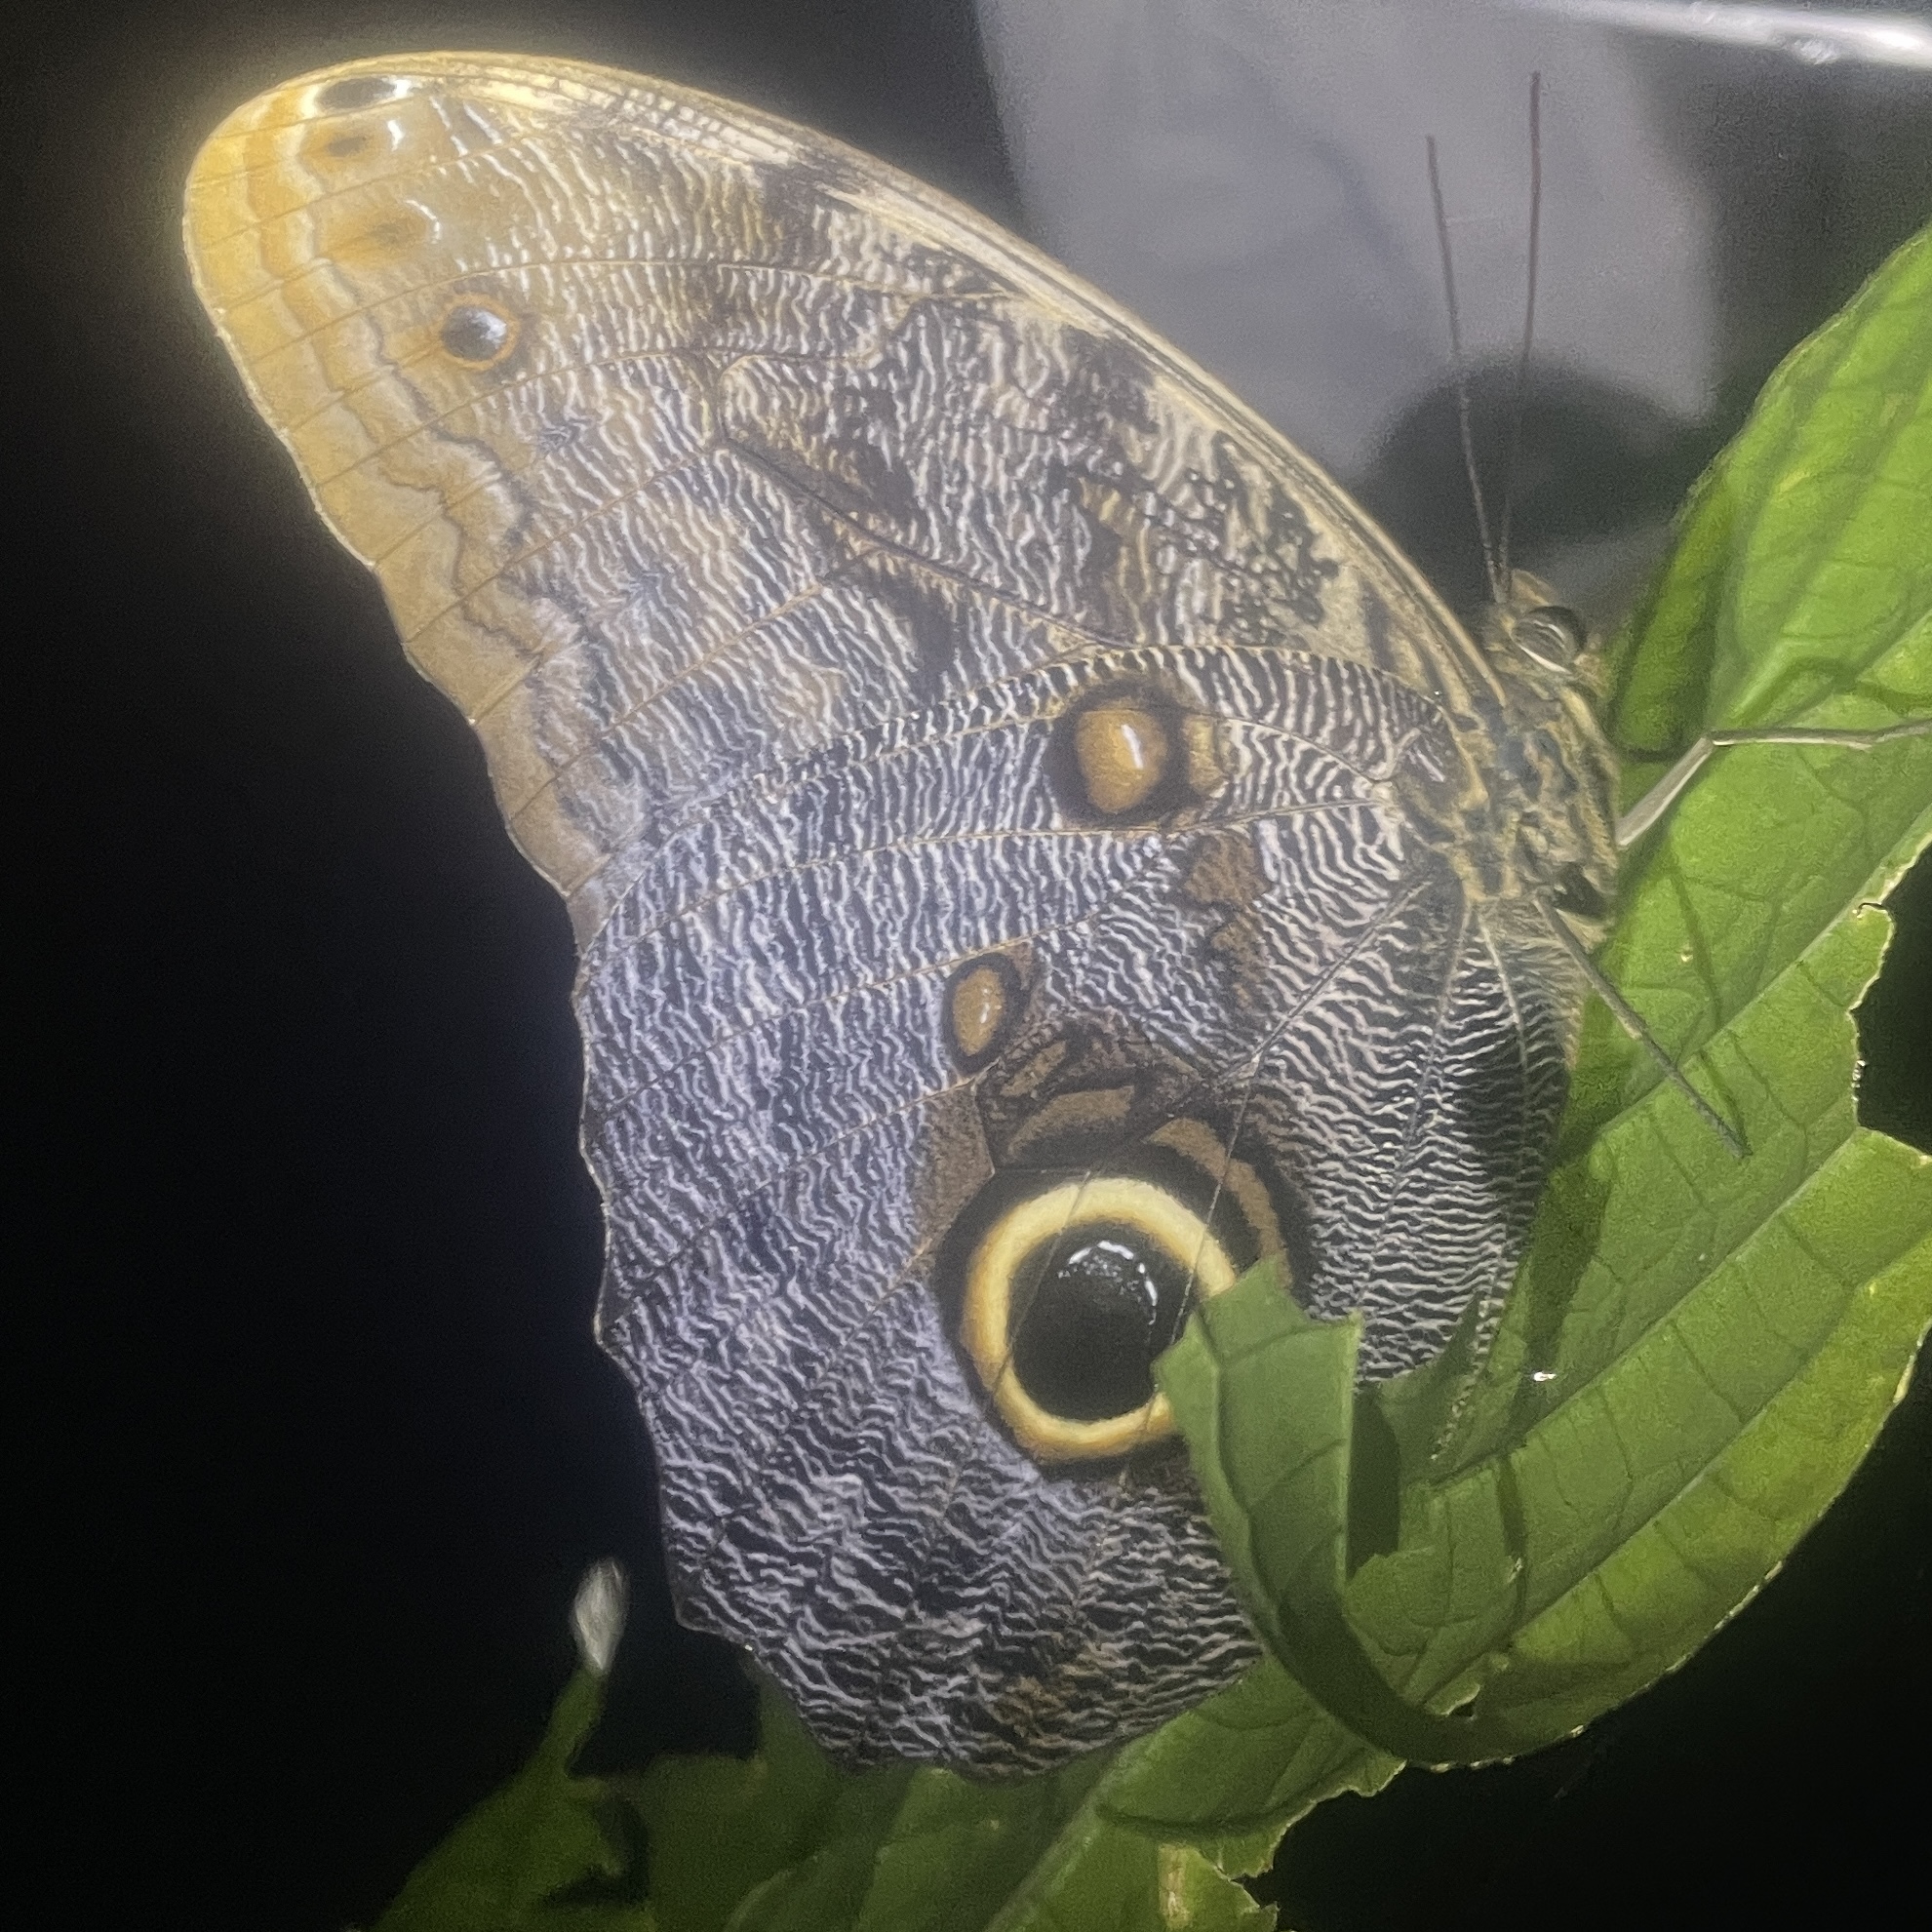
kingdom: Animalia
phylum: Arthropoda
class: Insecta
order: Lepidoptera
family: Nymphalidae
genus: Caligo
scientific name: Caligo brasiliensis
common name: Dark owl-butterfly
